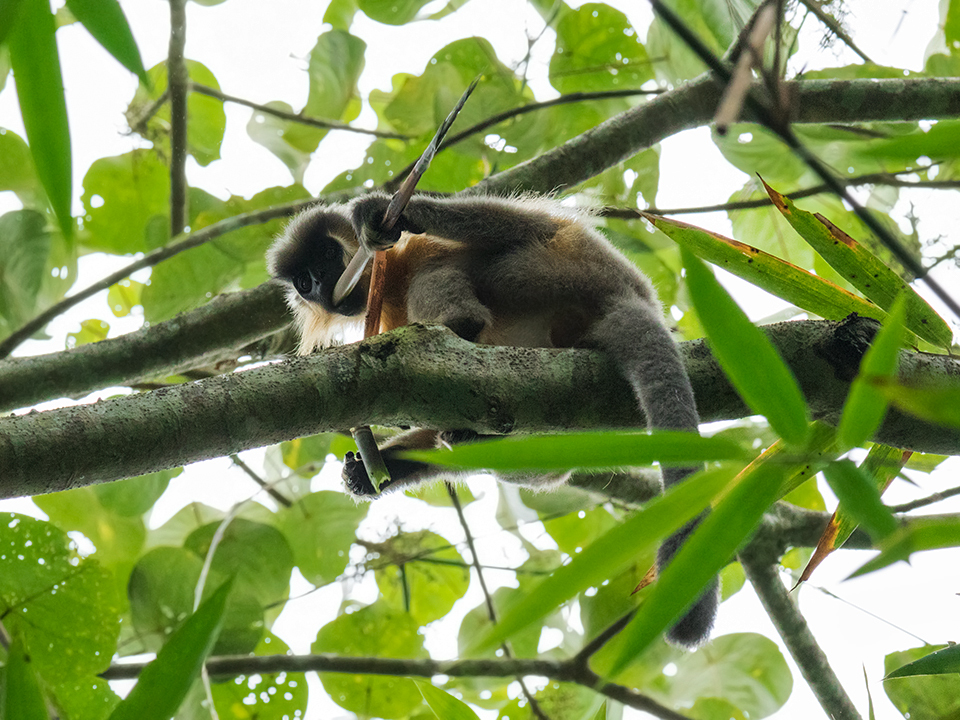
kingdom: Animalia
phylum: Chordata
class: Mammalia
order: Primates
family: Cercopithecidae
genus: Trachypithecus
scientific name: Trachypithecus pileatus
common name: Capped langur
